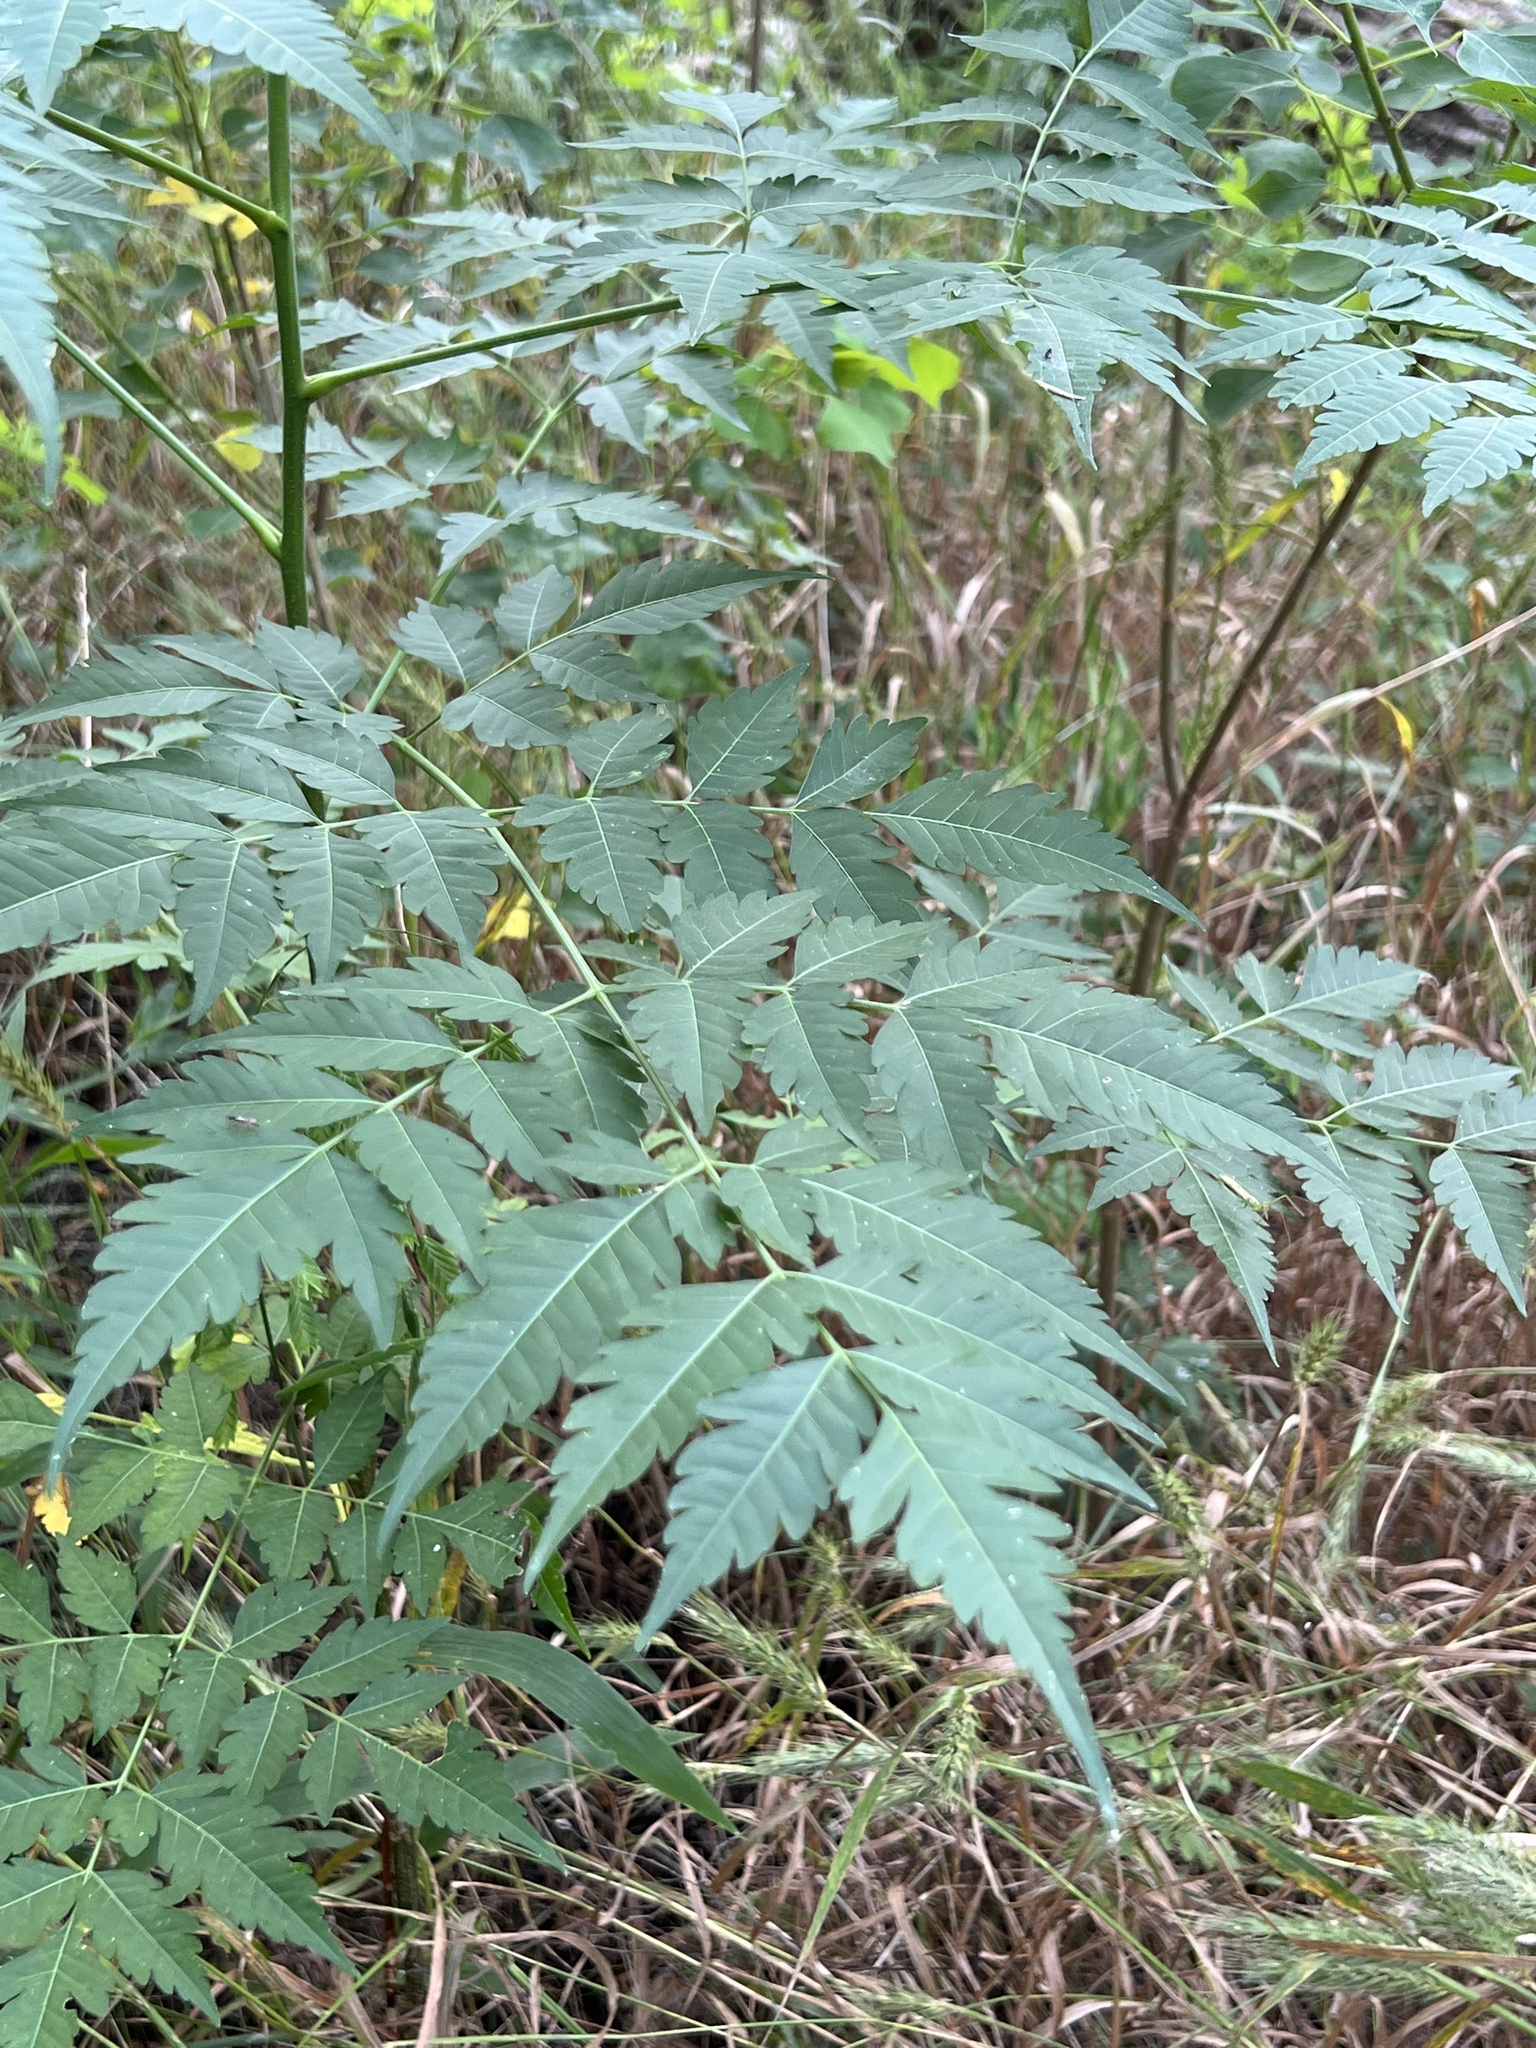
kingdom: Plantae
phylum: Tracheophyta
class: Magnoliopsida
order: Sapindales
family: Meliaceae
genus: Melia
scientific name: Melia azedarach
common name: Chinaberrytree
